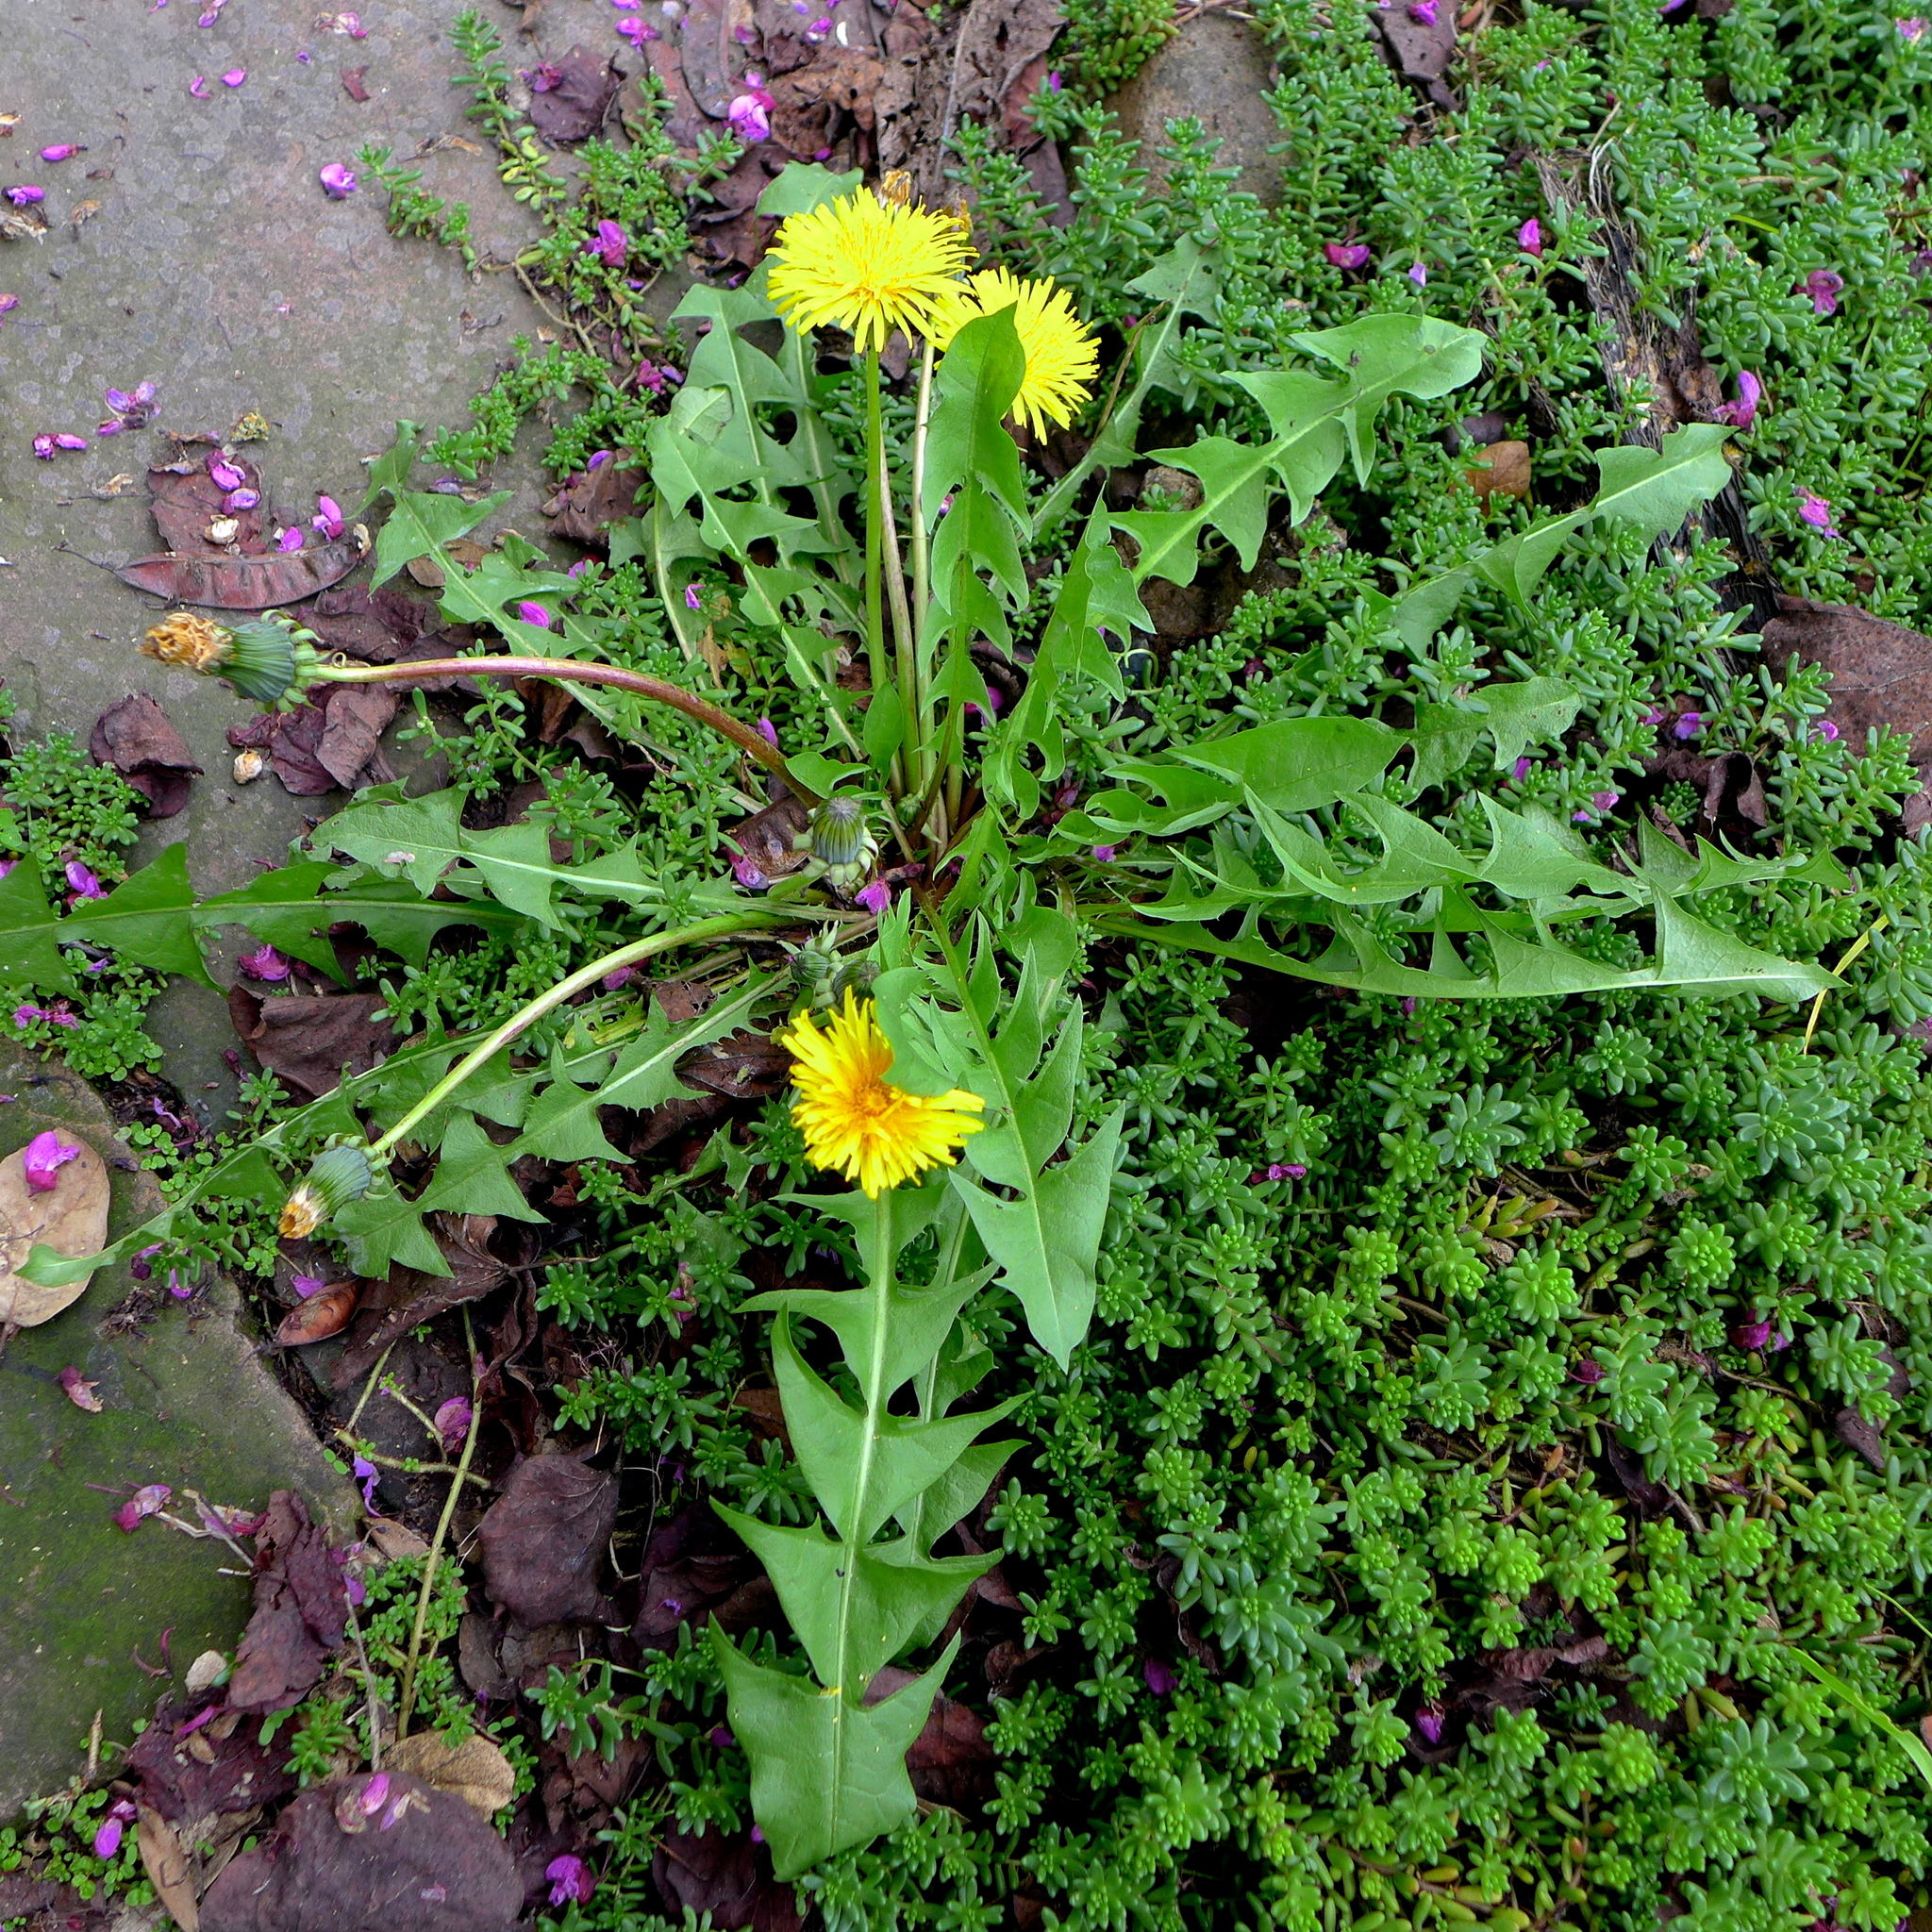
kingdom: Plantae
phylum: Tracheophyta
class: Magnoliopsida
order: Asterales
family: Asteraceae
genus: Taraxacum
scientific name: Taraxacum officinale
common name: Common dandelion
